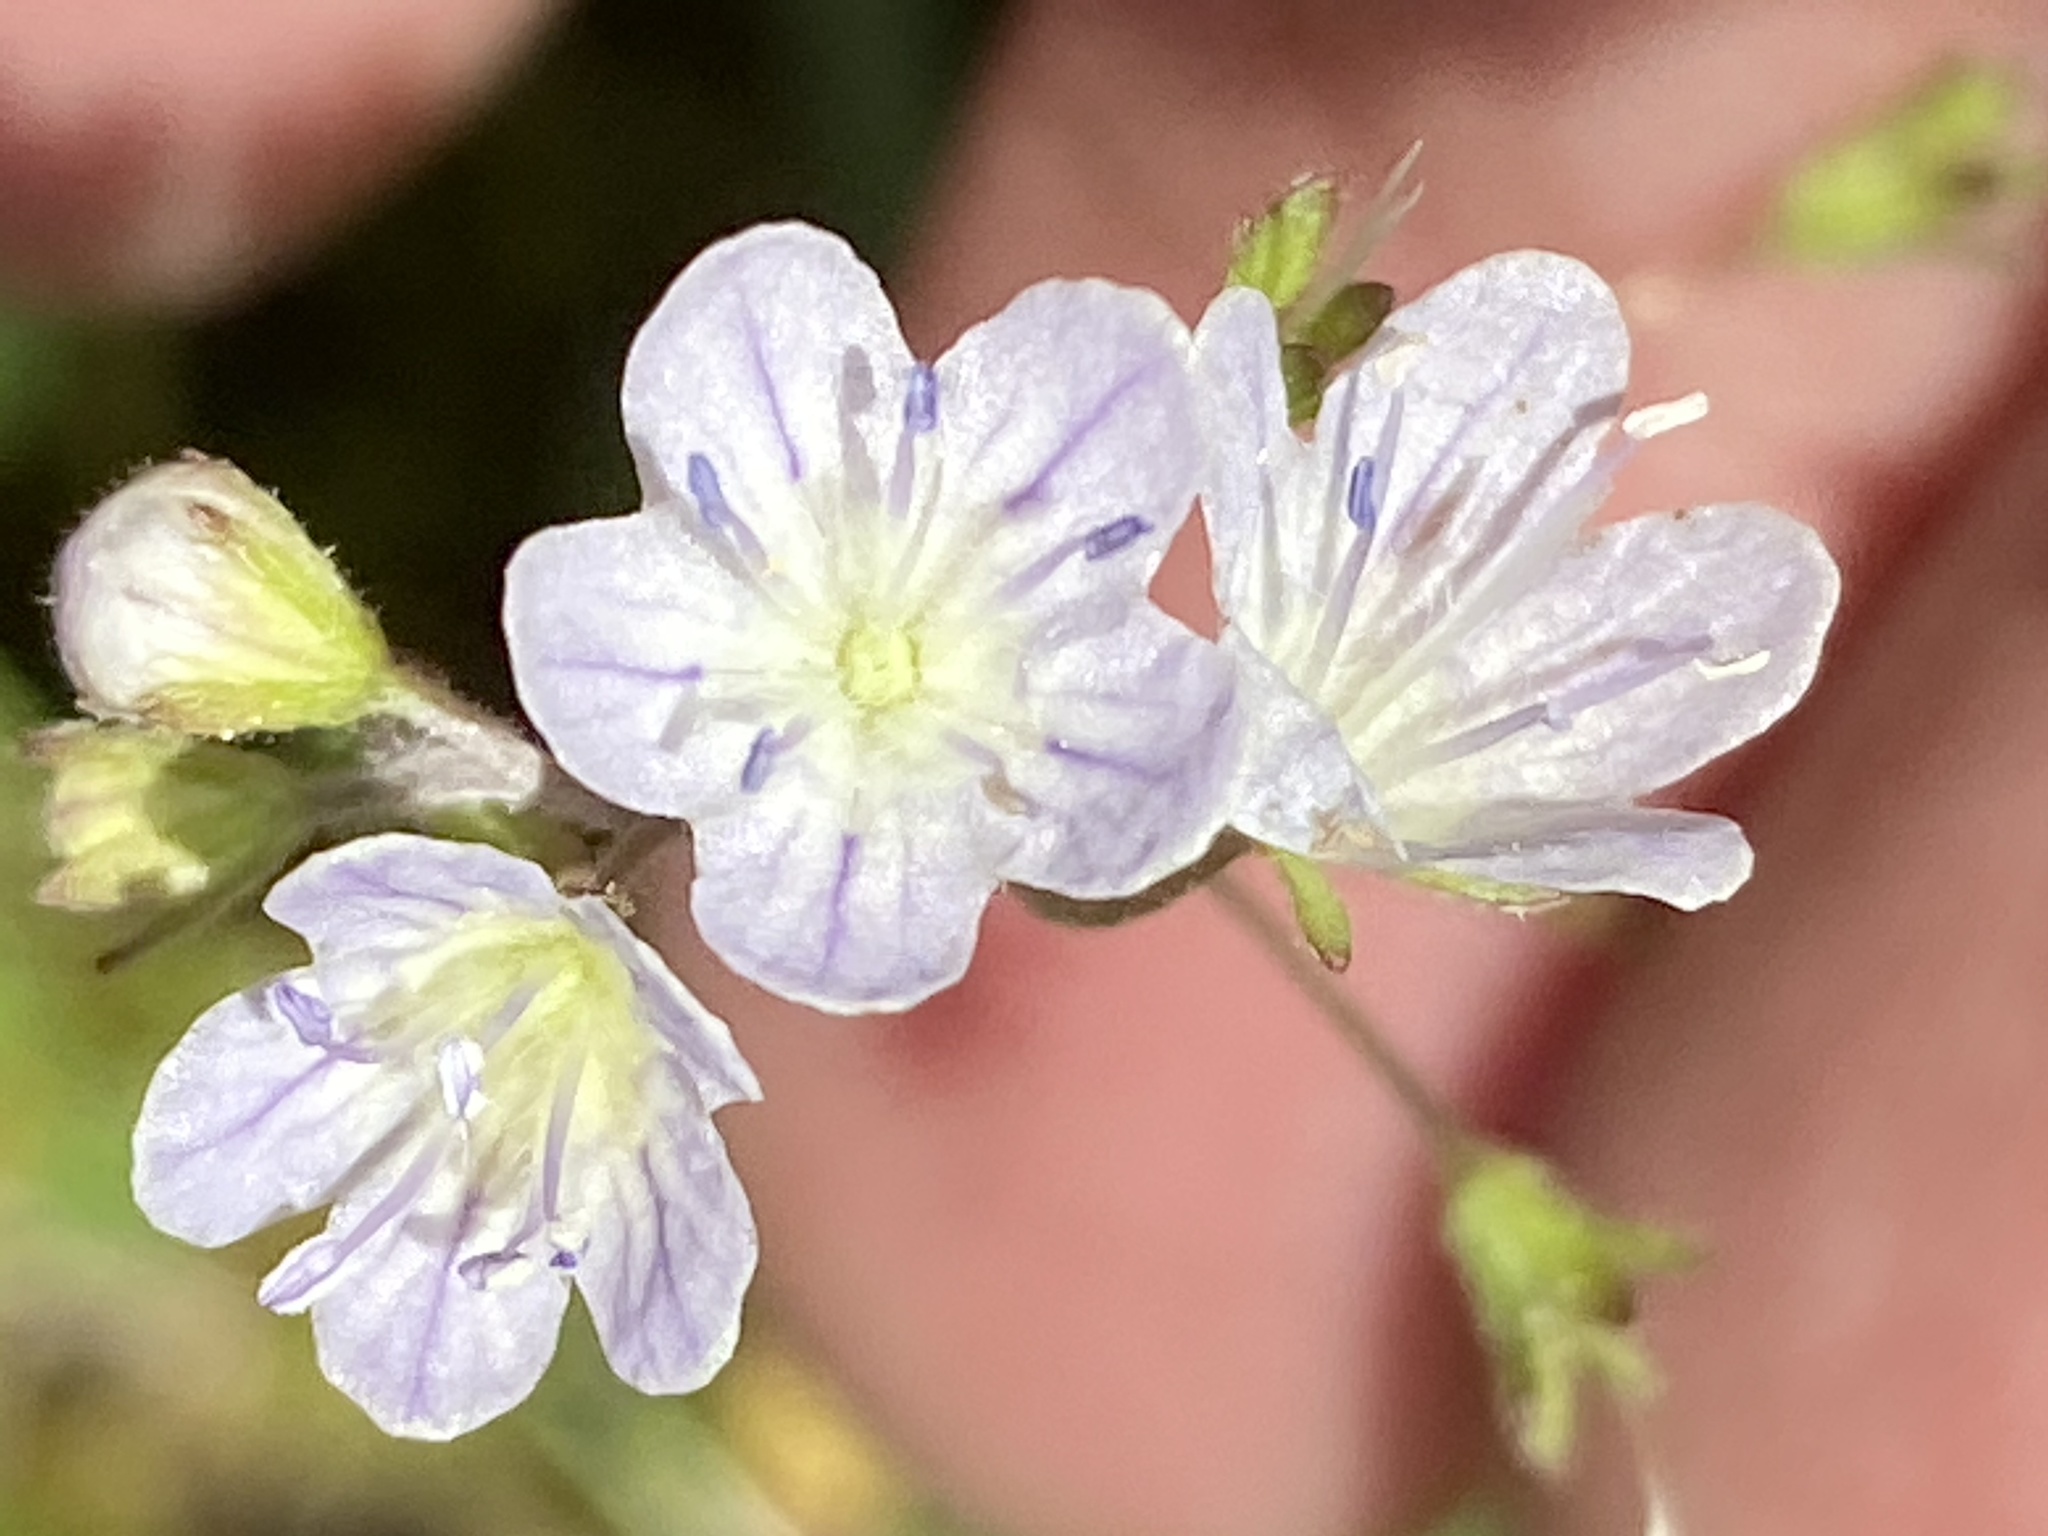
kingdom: Plantae
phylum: Tracheophyta
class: Magnoliopsida
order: Boraginales
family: Hydrophyllaceae
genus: Phacelia
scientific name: Phacelia dubia
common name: Appalachian phacelia
